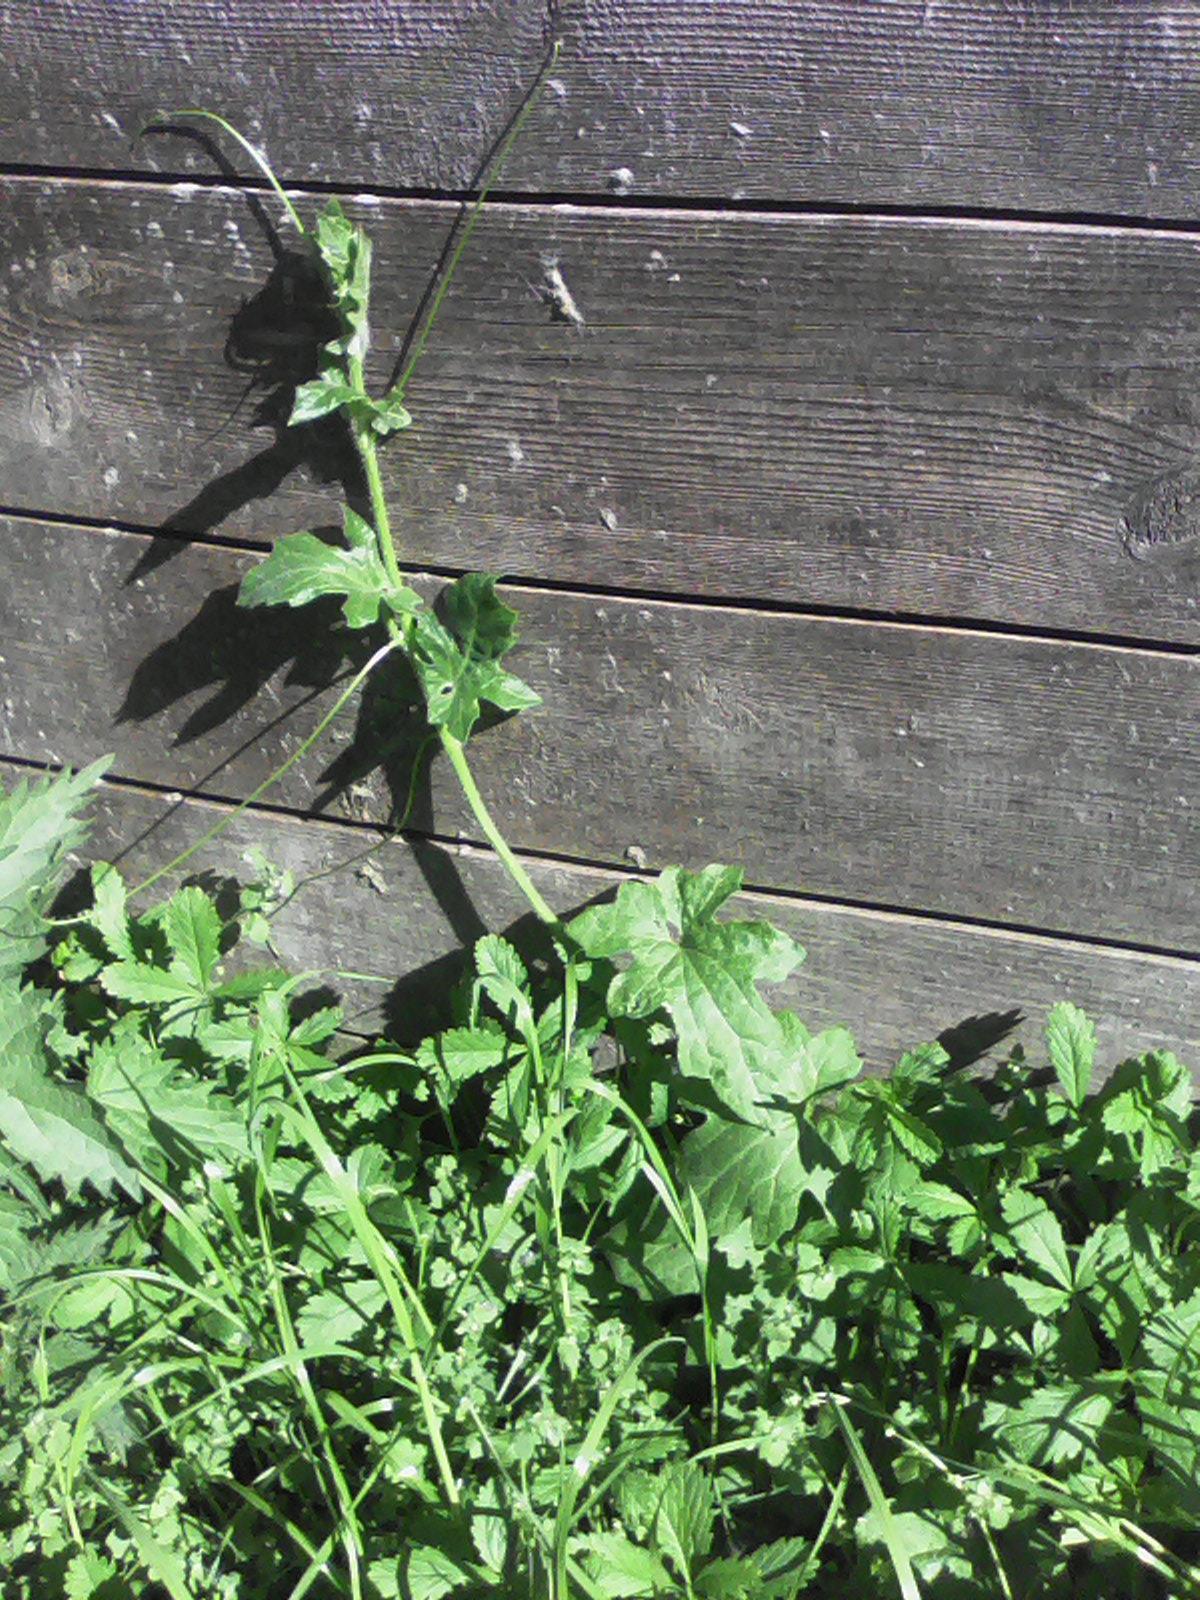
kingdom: Plantae
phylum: Tracheophyta
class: Magnoliopsida
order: Cucurbitales
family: Cucurbitaceae
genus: Bryonia
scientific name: Bryonia cretica
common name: Cretan bryony
